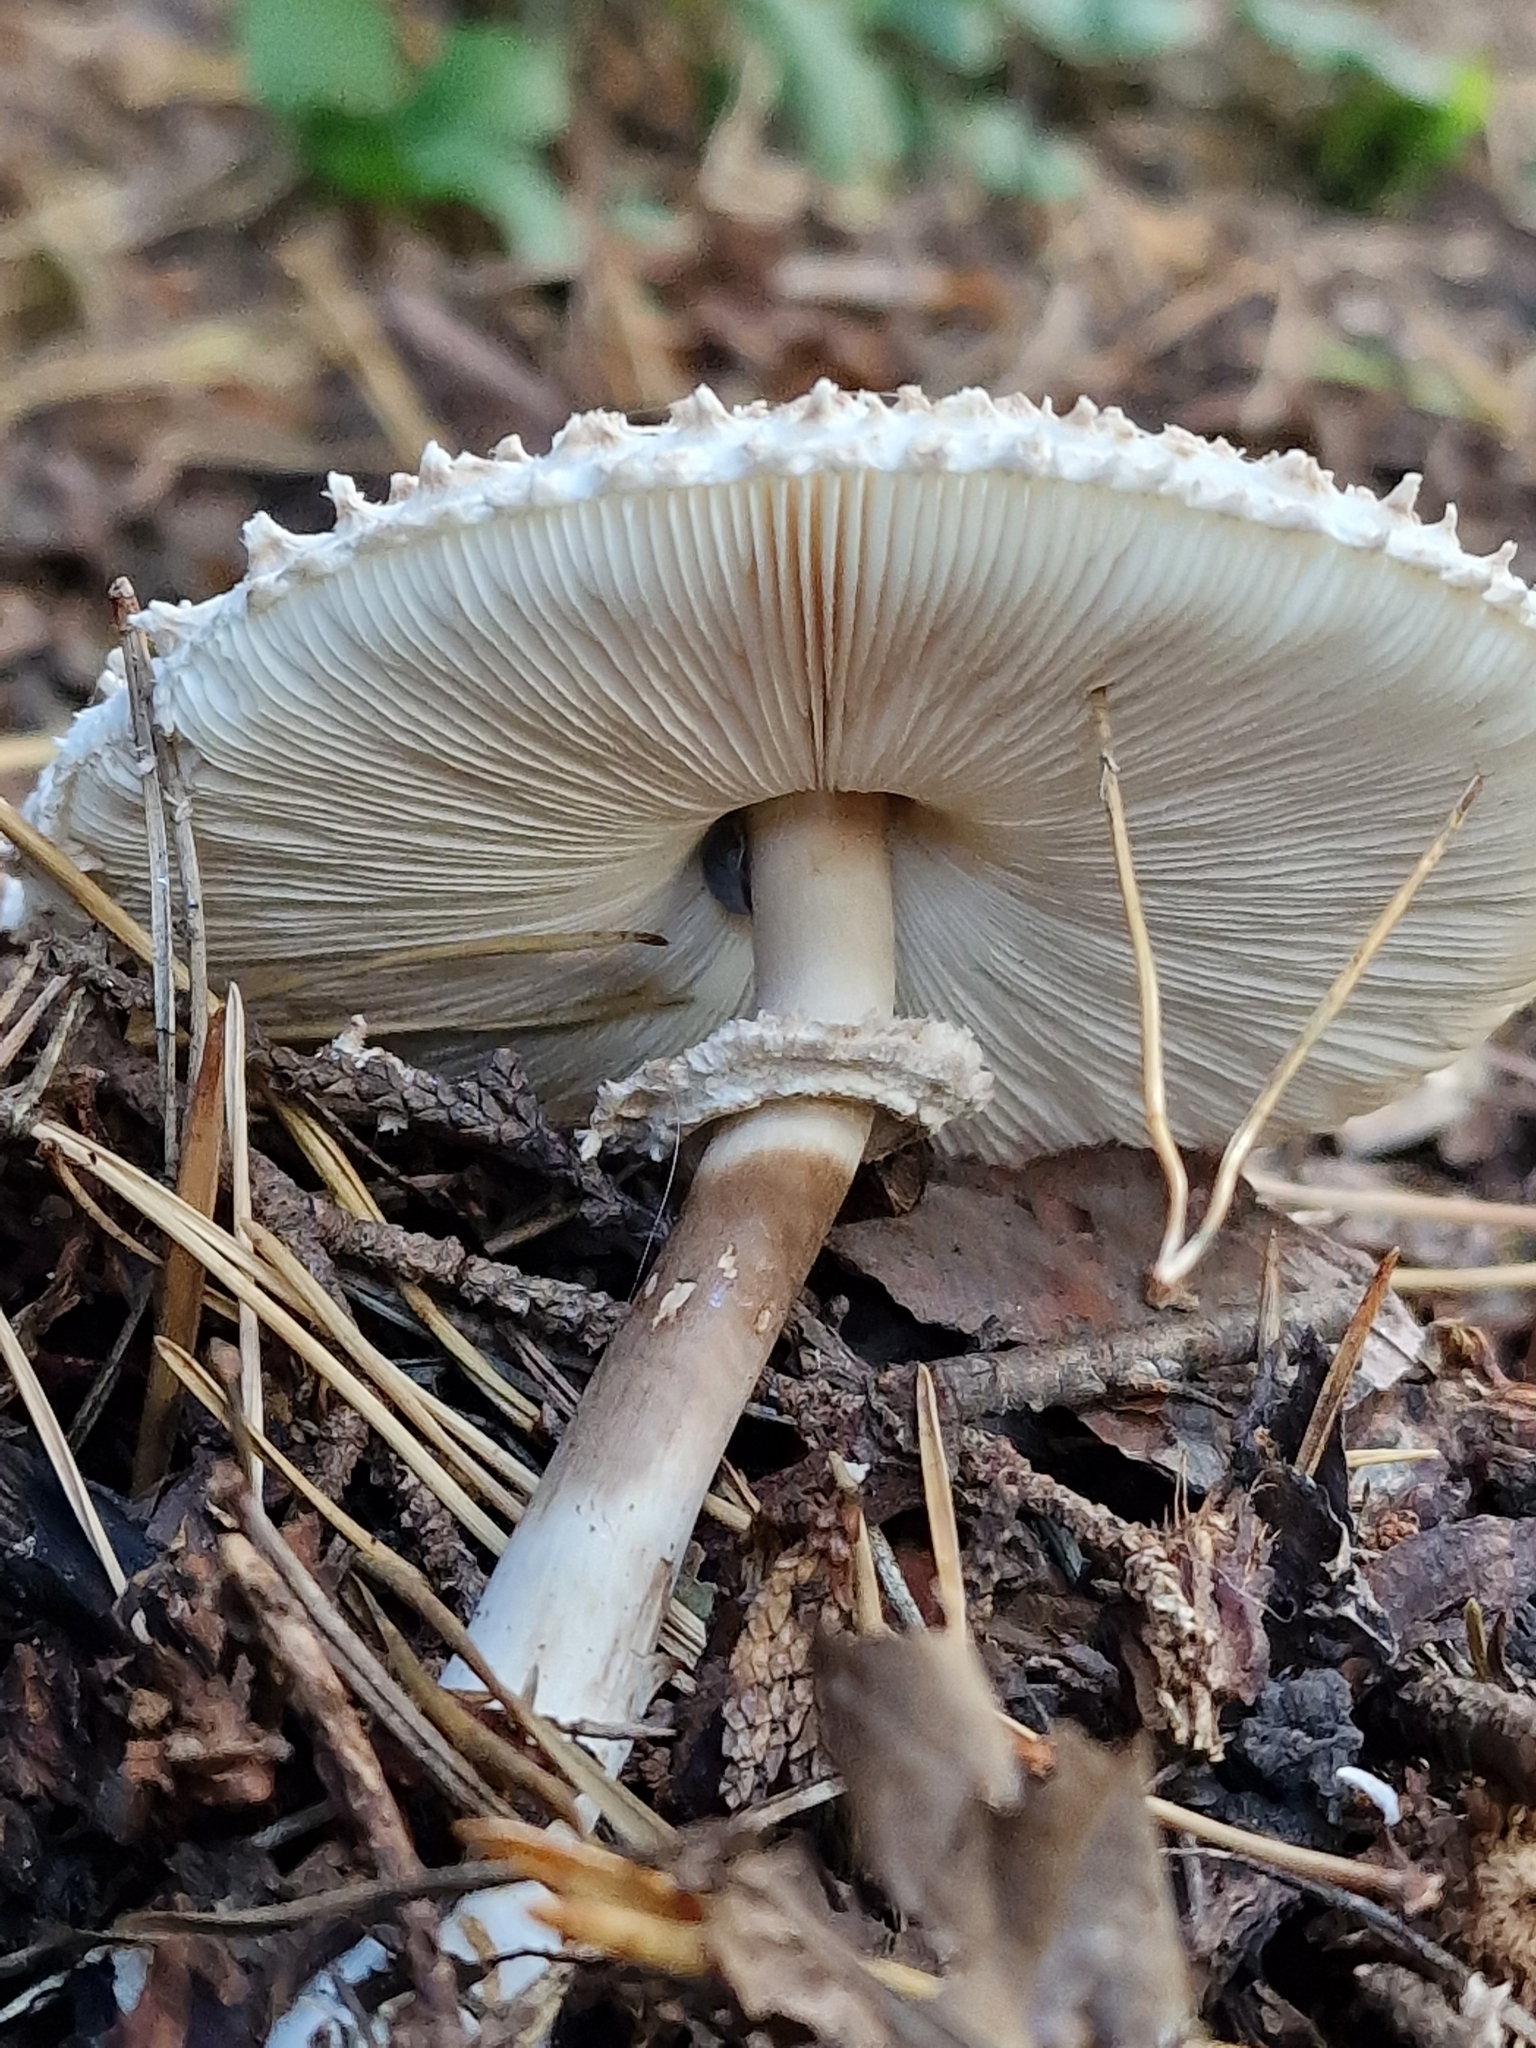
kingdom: Fungi
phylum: Basidiomycota
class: Agaricomycetes
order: Agaricales
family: Agaricaceae
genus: Chlorophyllum
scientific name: Chlorophyllum rhacodes
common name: Shaggy parasol
